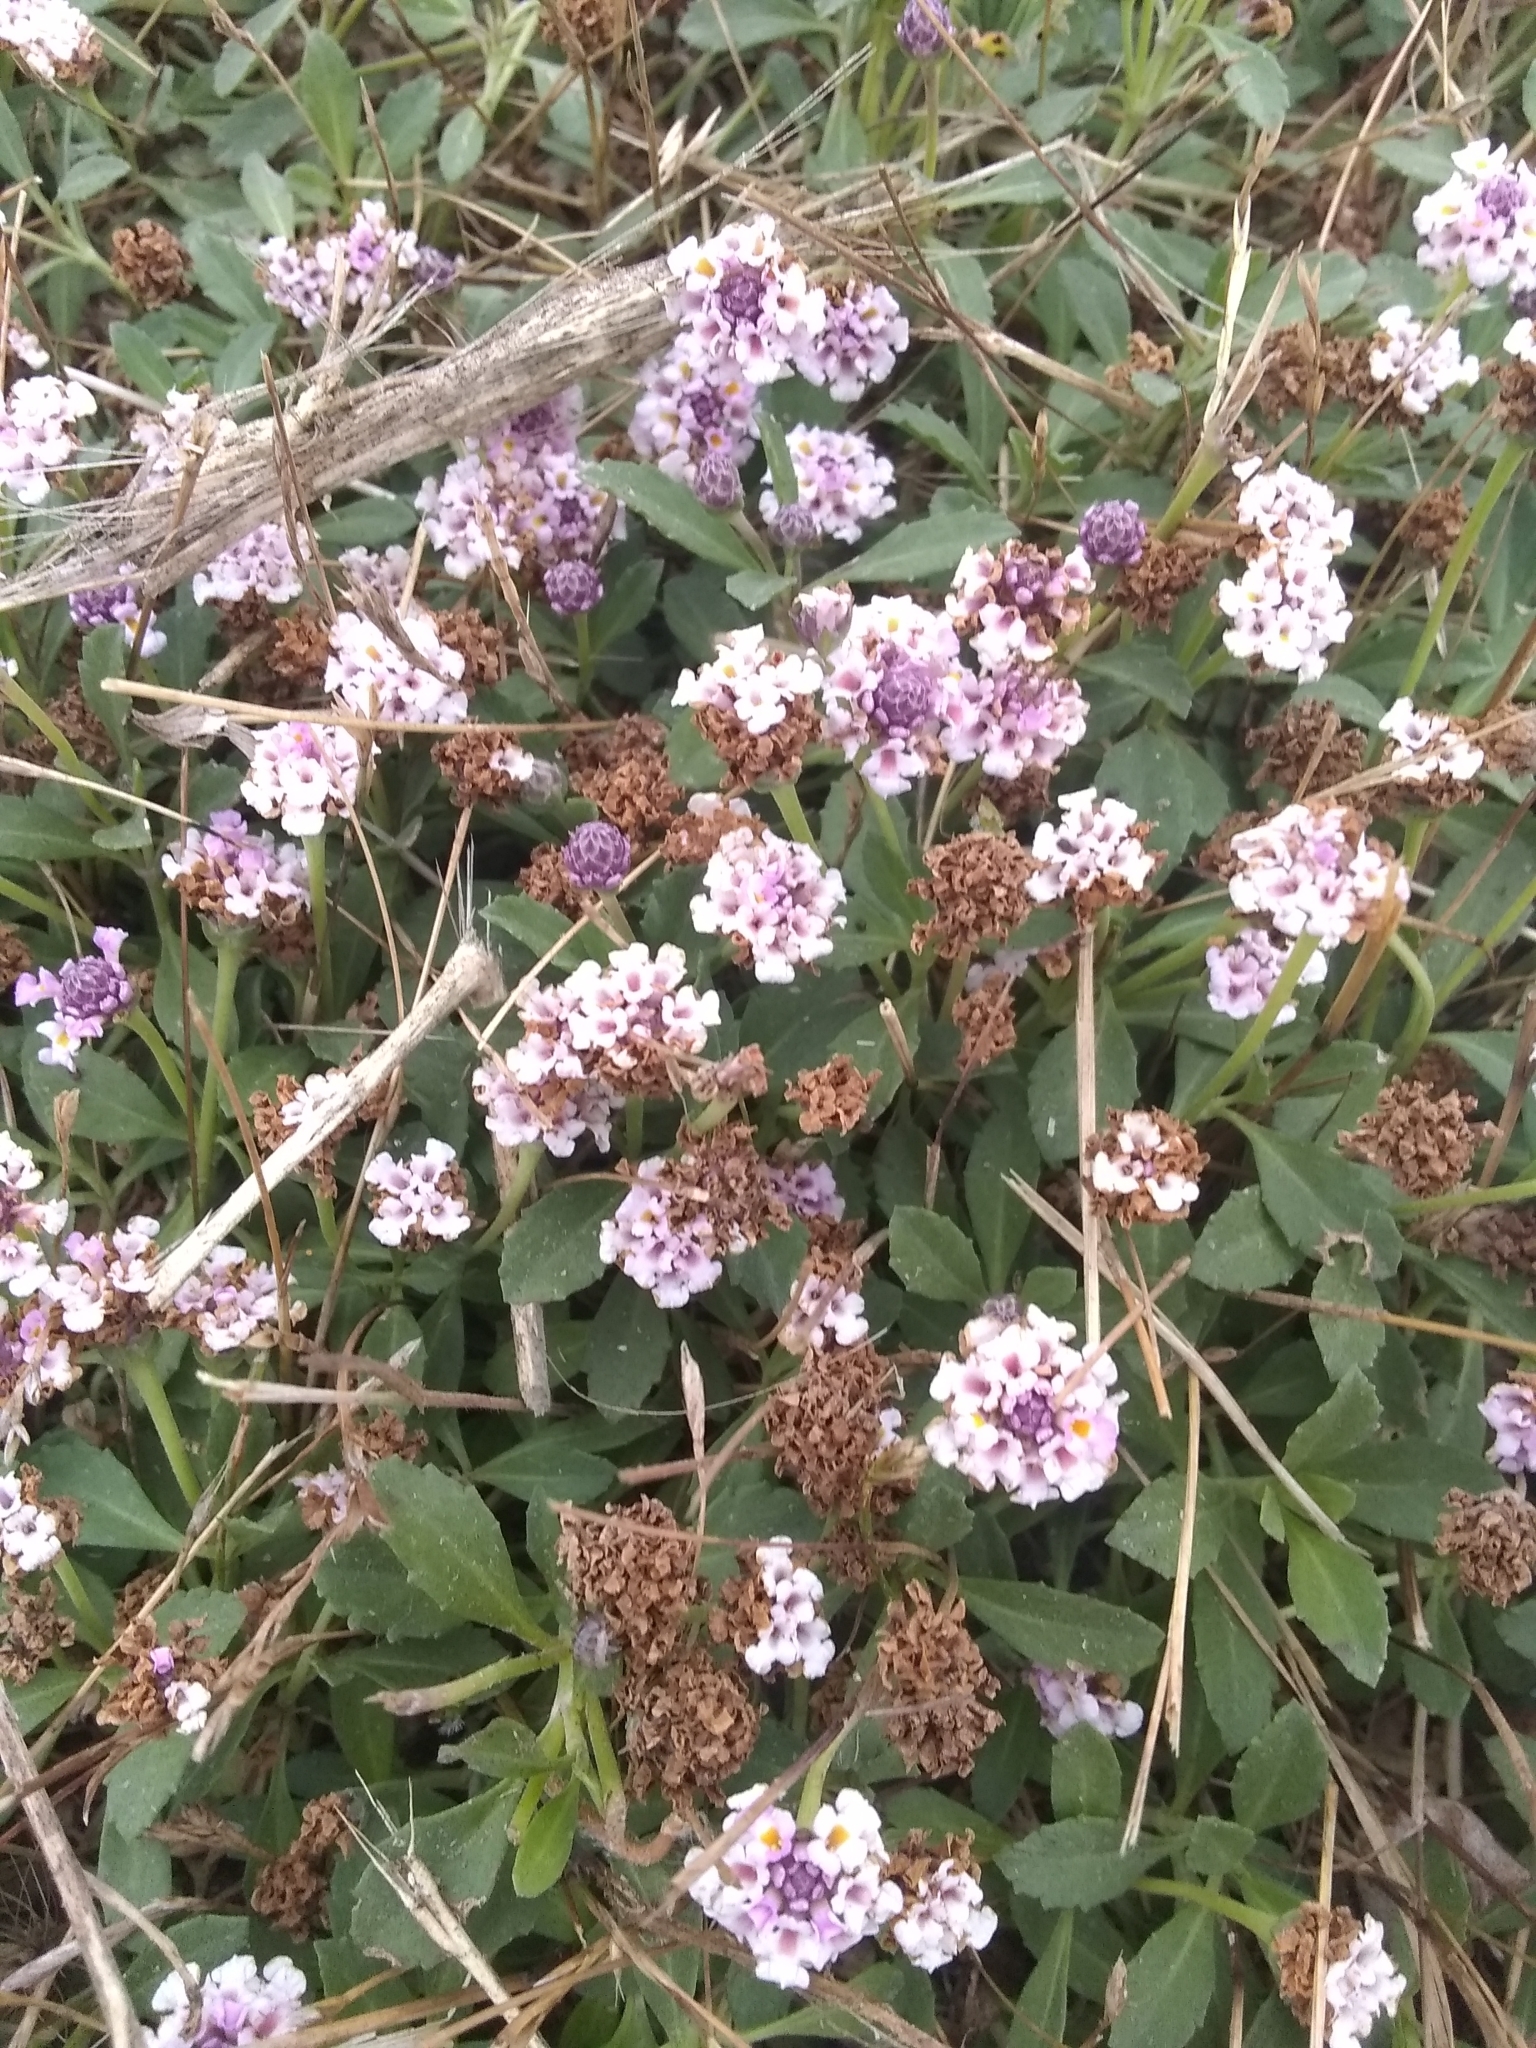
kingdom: Plantae
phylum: Tracheophyta
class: Magnoliopsida
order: Lamiales
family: Verbenaceae
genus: Phyla
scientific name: Phyla nodiflora
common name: Frogfruit
